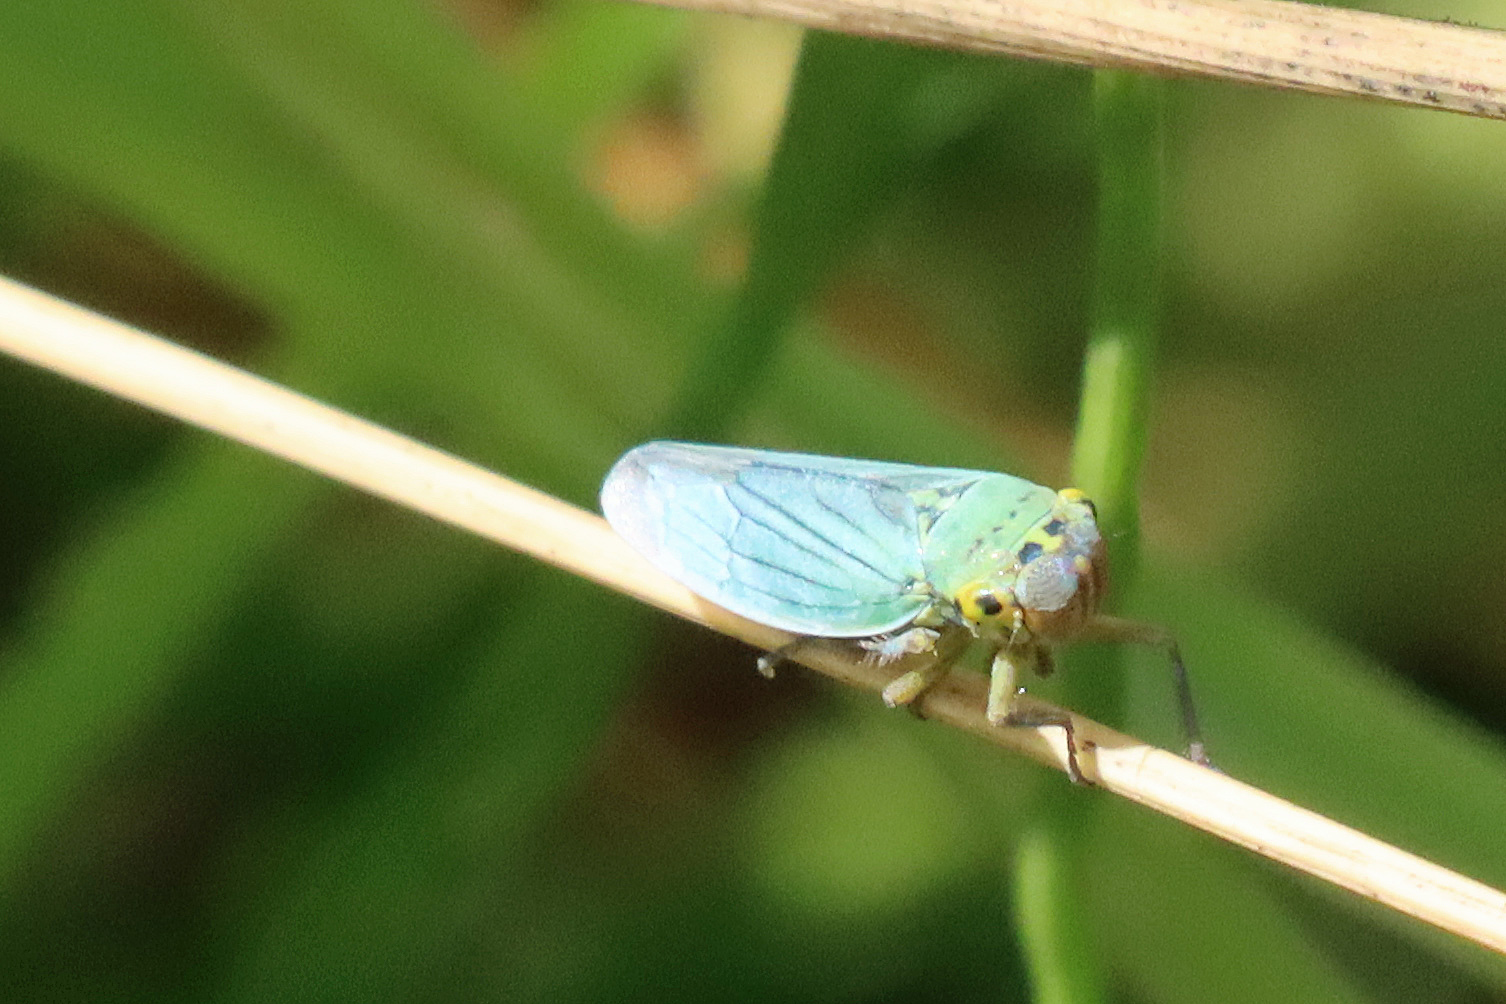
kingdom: Animalia
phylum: Arthropoda
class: Insecta
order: Hemiptera
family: Cicadellidae
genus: Cicadella
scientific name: Cicadella viridis
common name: Leafhopper
